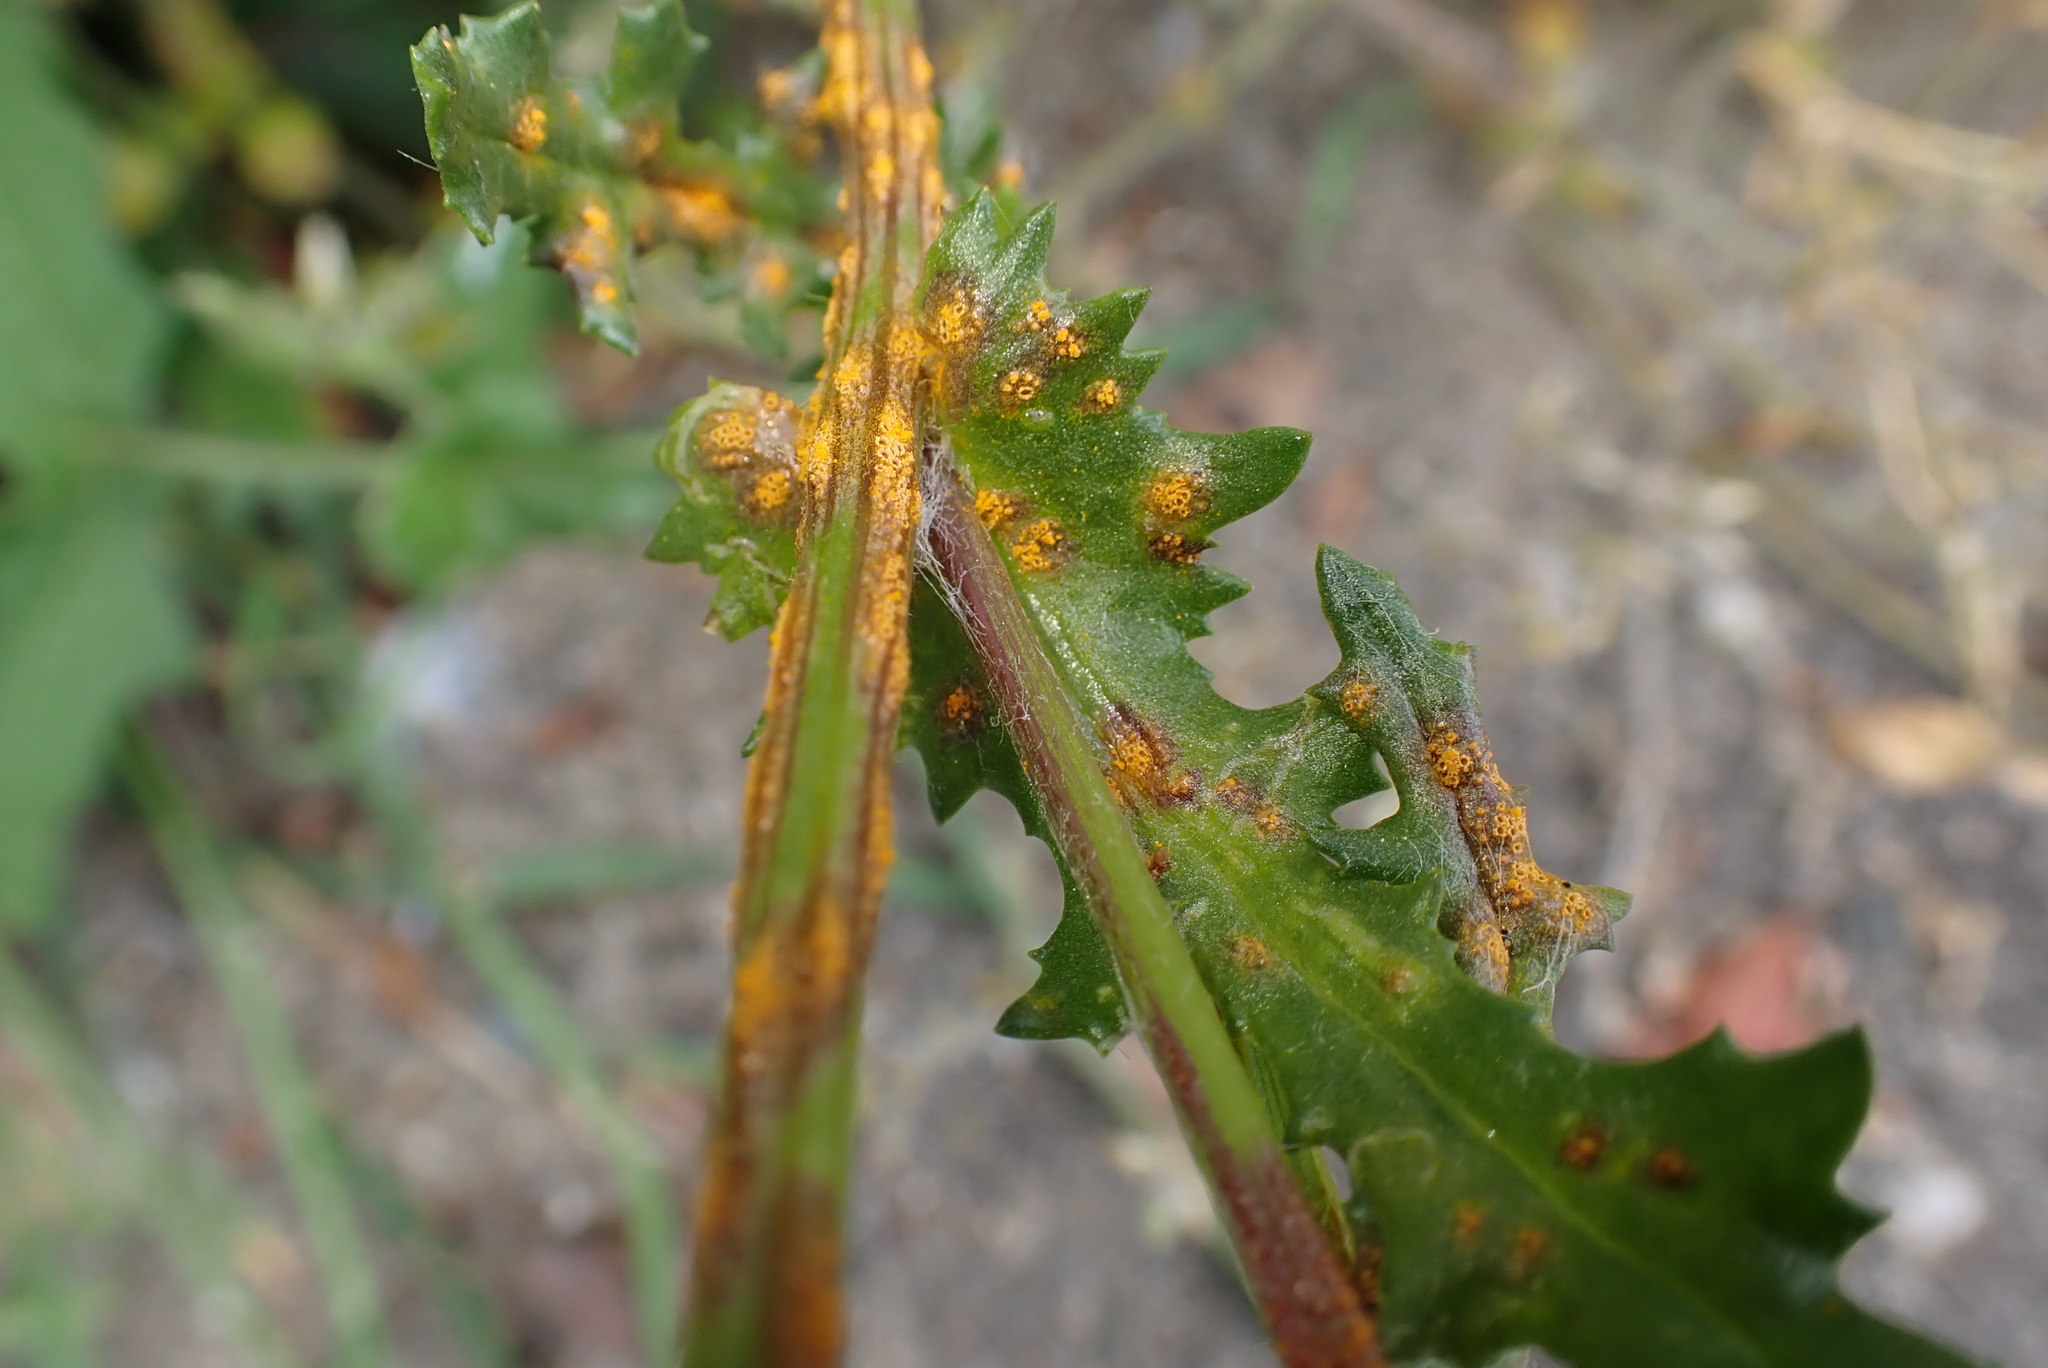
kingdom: Fungi
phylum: Basidiomycota
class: Pucciniomycetes
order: Pucciniales
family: Pucciniaceae
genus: Puccinia
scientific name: Puccinia lagenophorae
